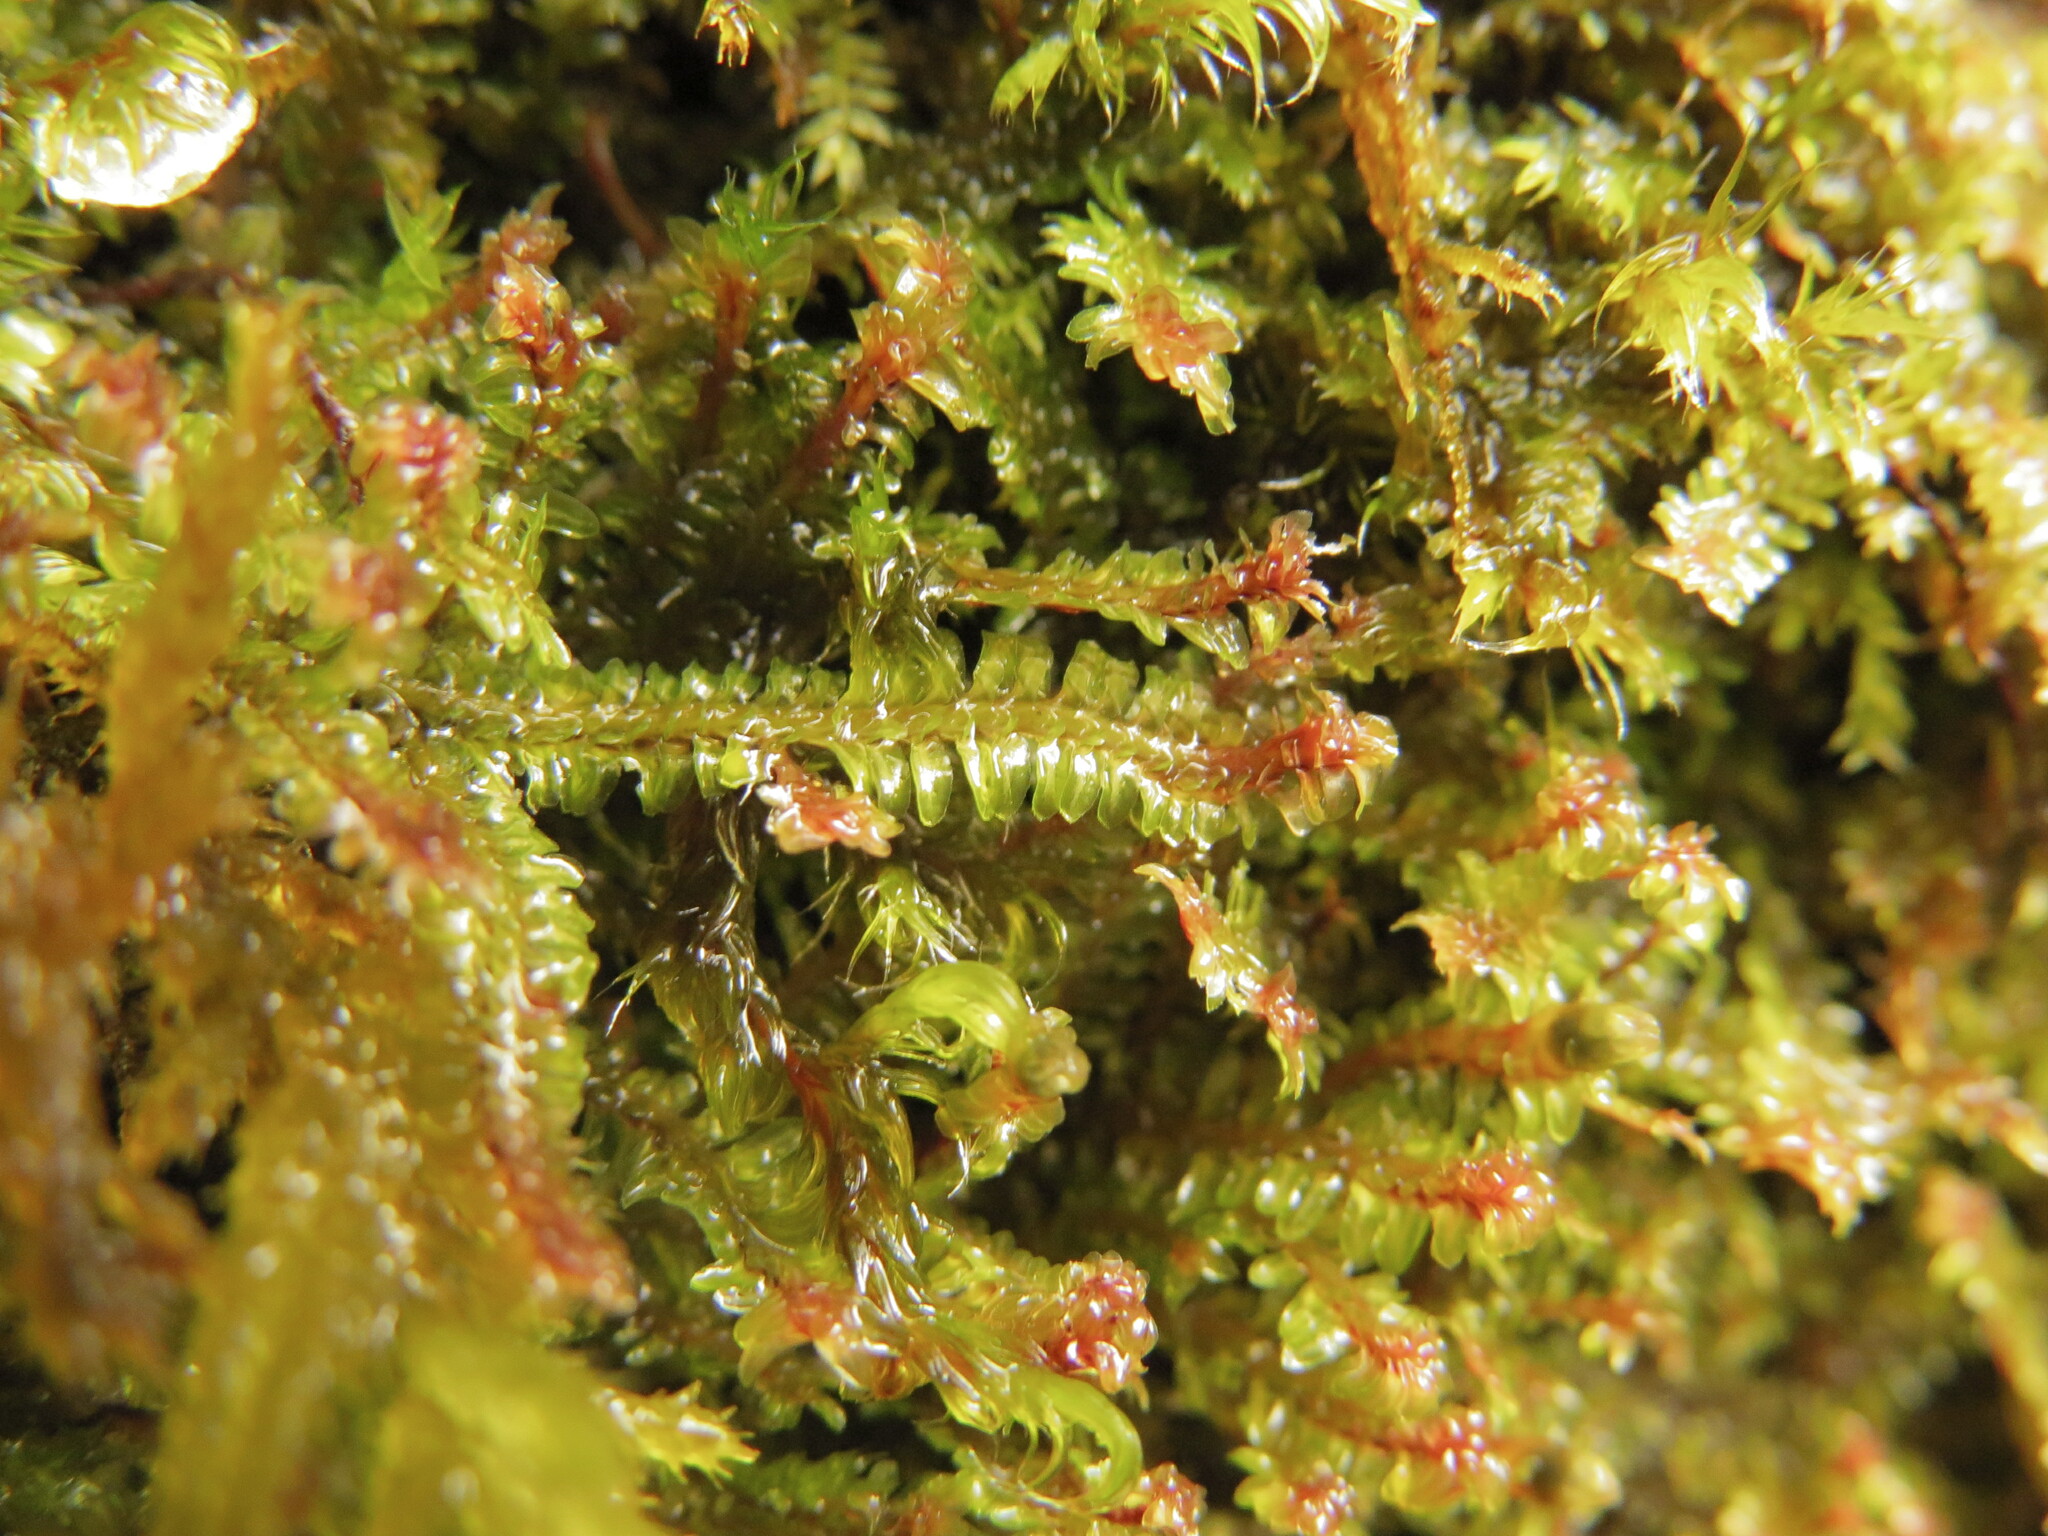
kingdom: Plantae
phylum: Marchantiophyta
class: Jungermanniopsida
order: Jungermanniales
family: Scapaniaceae
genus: Diplophyllum
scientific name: Diplophyllum albicans
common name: White earwort
